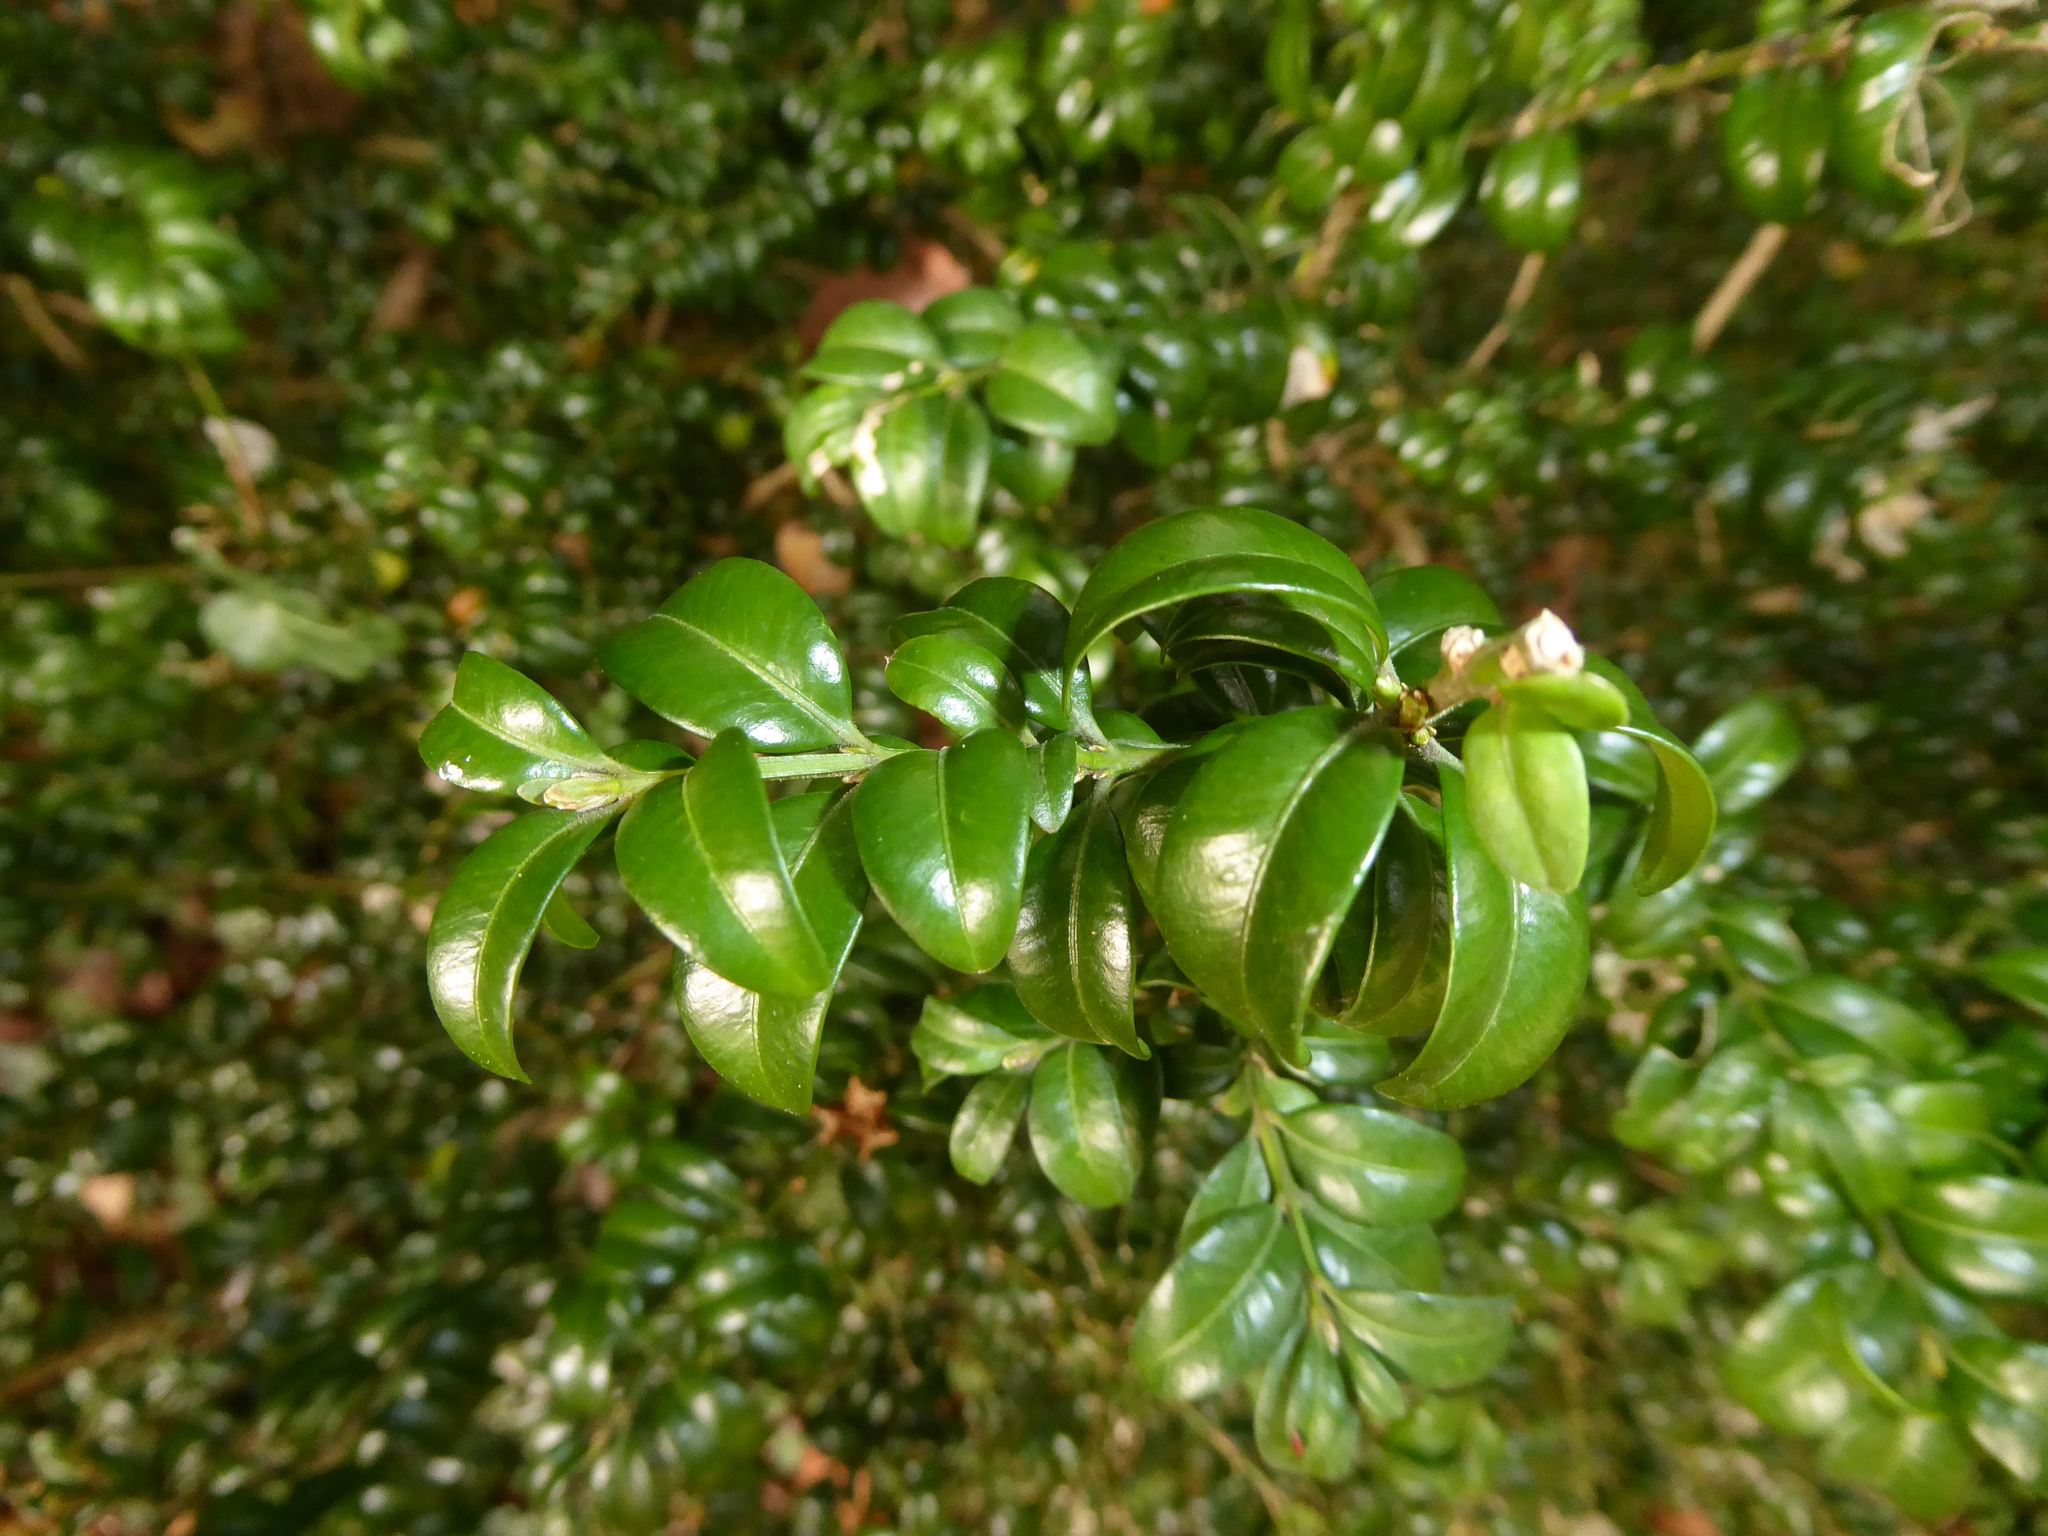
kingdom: Plantae
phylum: Tracheophyta
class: Magnoliopsida
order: Buxales
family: Buxaceae
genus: Buxus
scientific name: Buxus sempervirens
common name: Box
